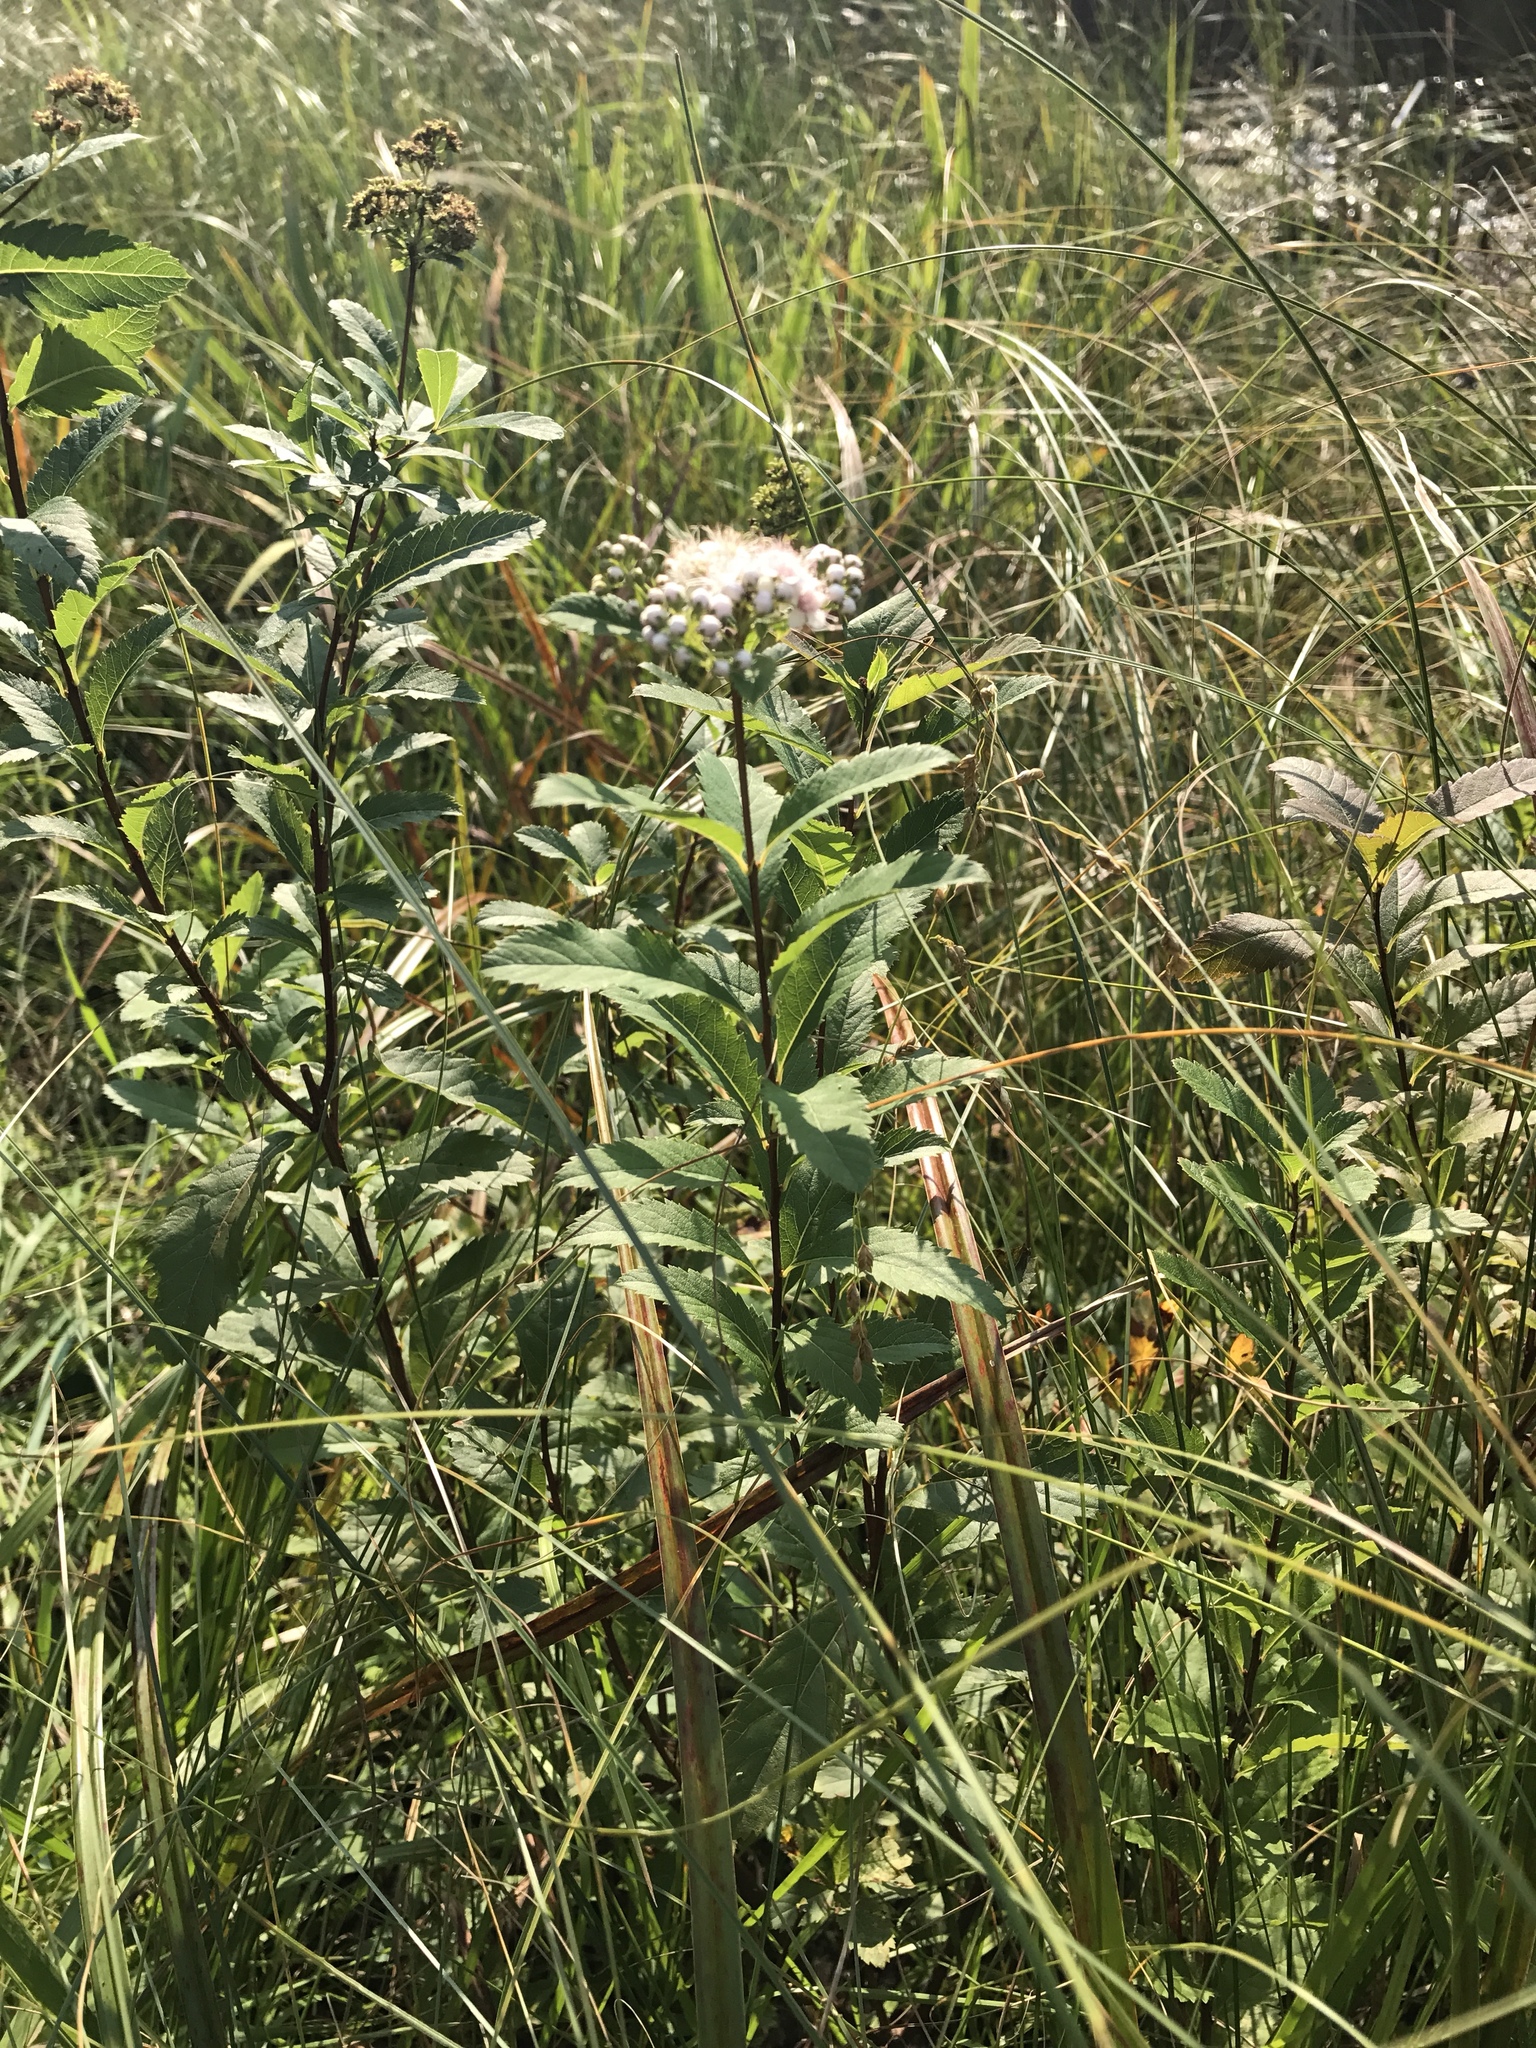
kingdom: Plantae
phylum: Tracheophyta
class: Magnoliopsida
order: Rosales
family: Rosaceae
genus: Spiraea
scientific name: Spiraea alba
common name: Pale bridewort
